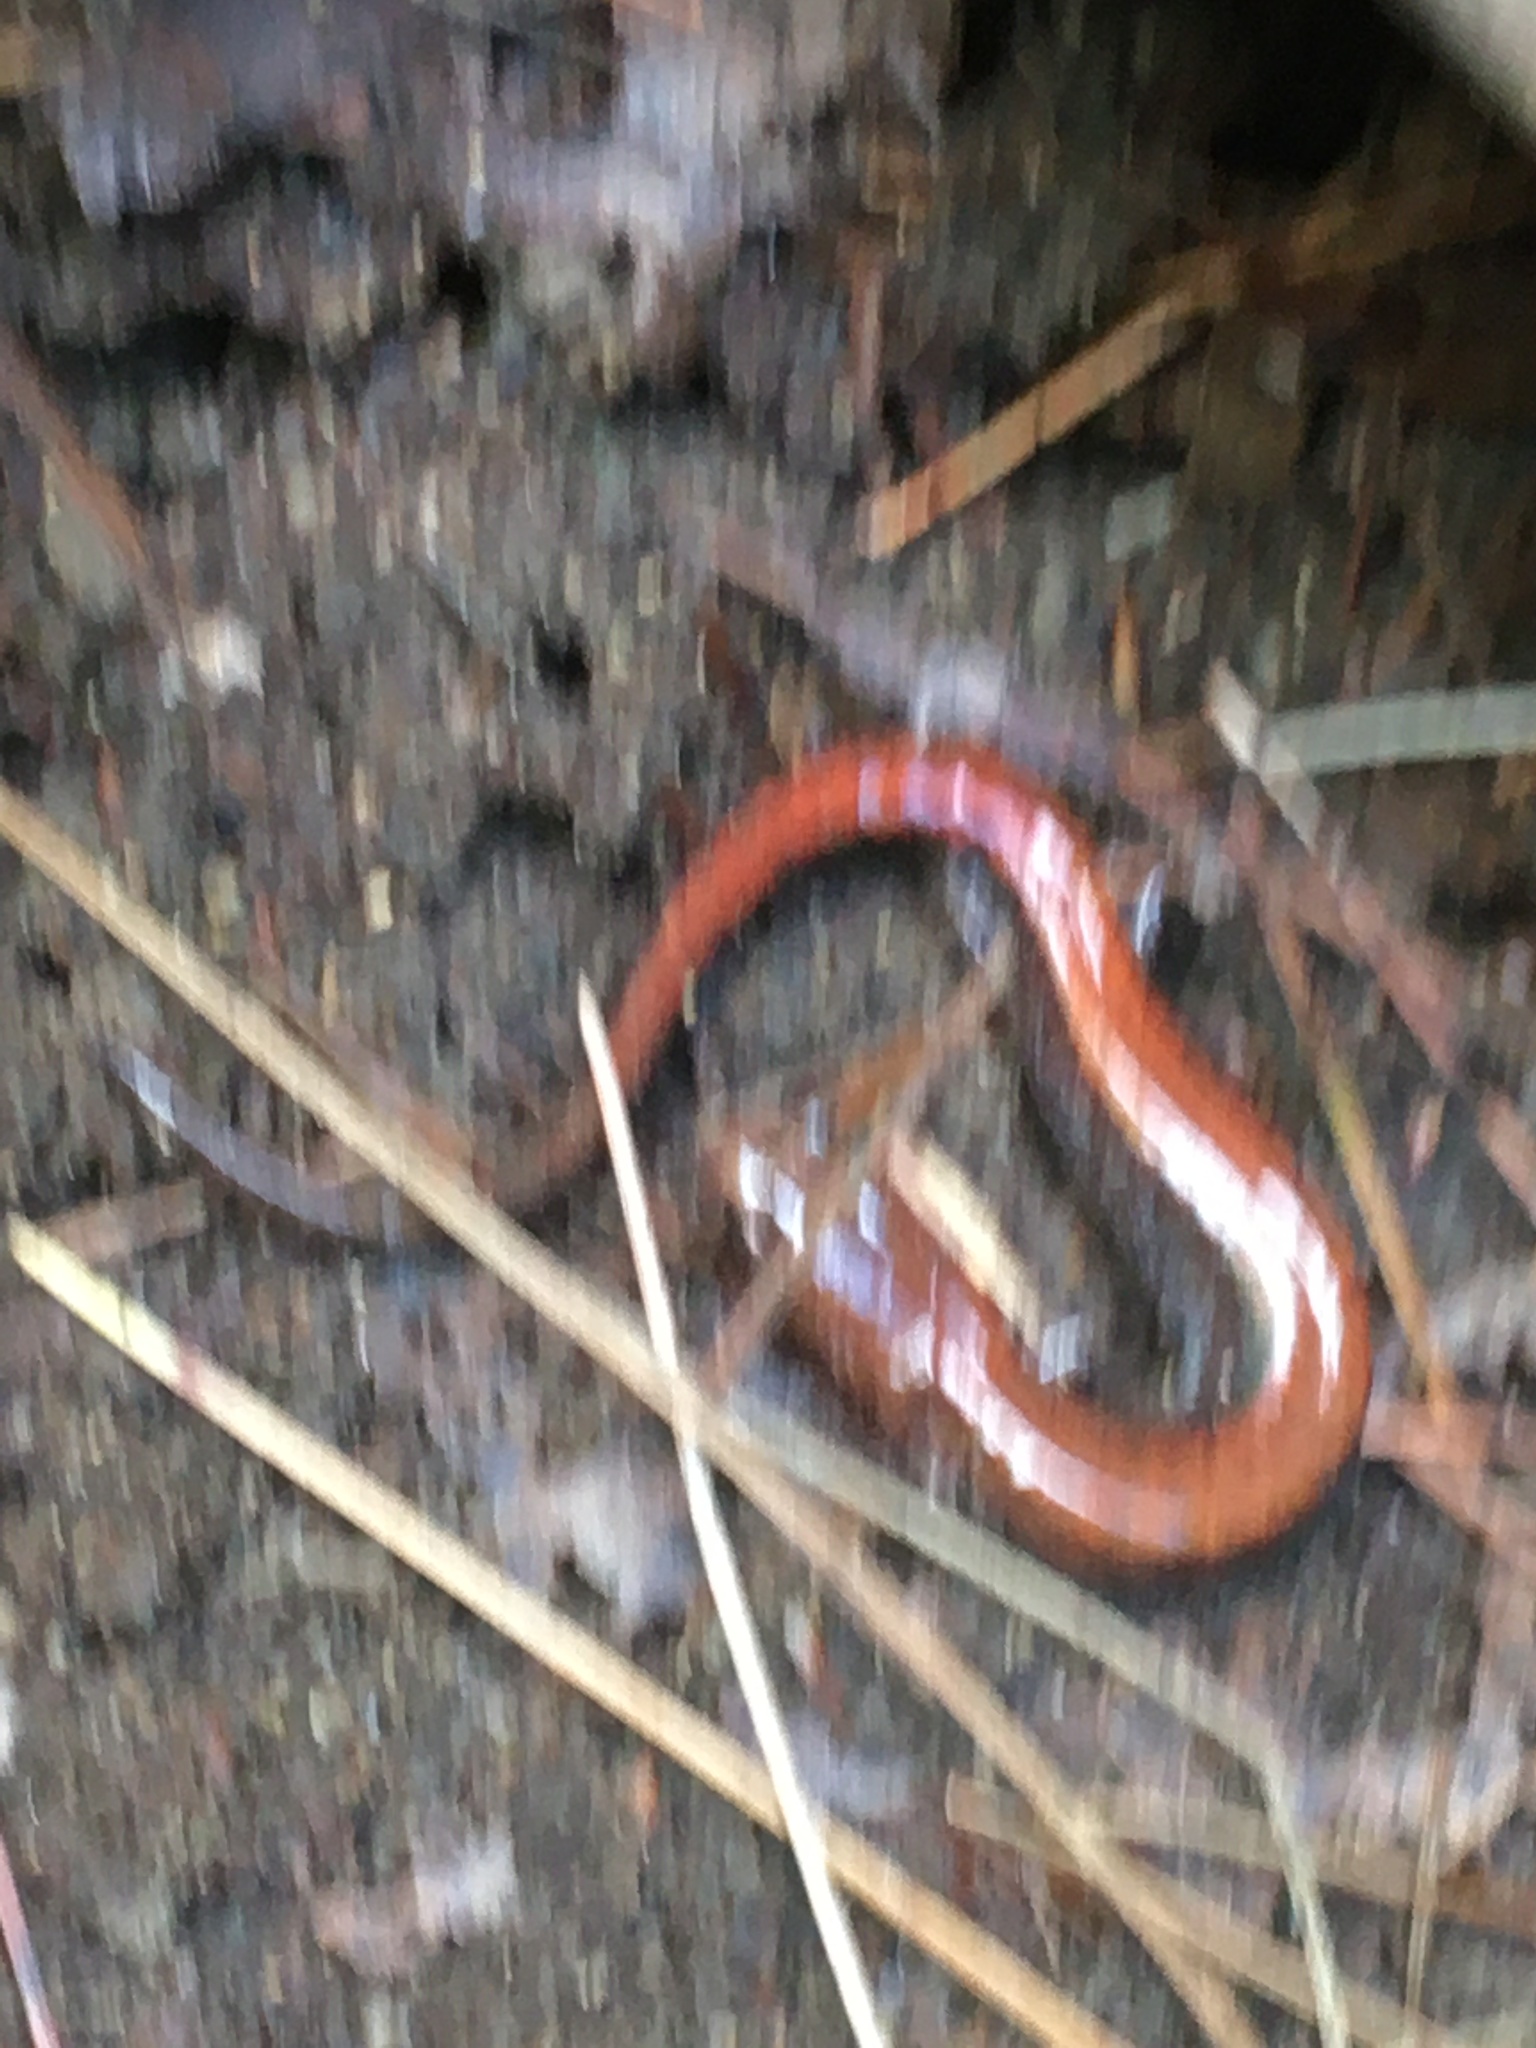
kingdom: Animalia
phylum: Chordata
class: Amphibia
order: Caudata
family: Plethodontidae
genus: Plethodon
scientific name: Plethodon cinereus
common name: Redback salamander
